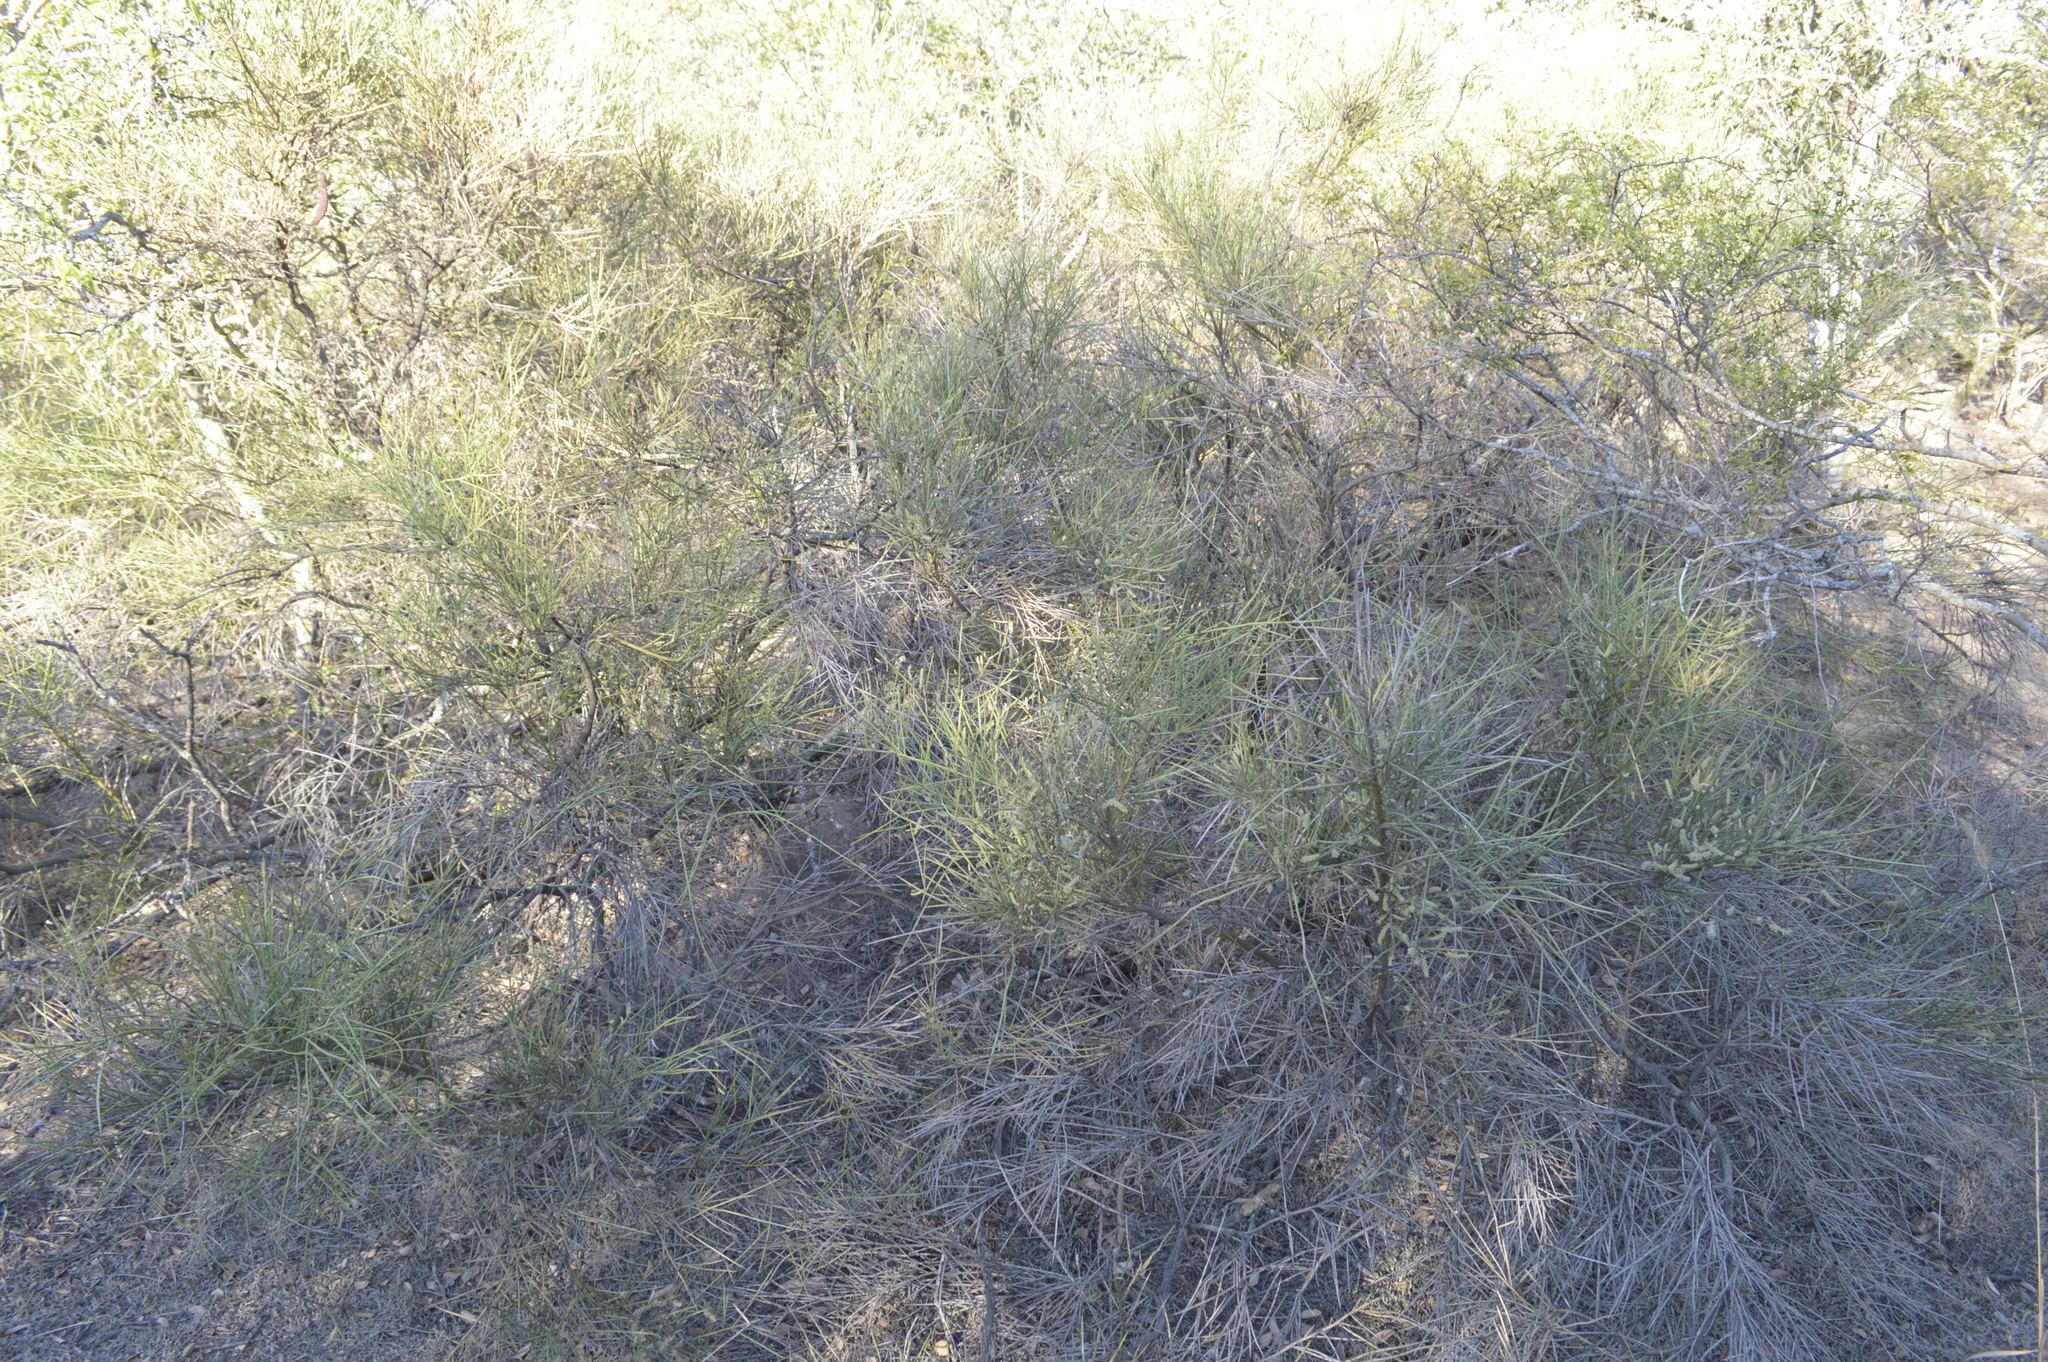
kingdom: Plantae
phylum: Tracheophyta
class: Magnoliopsida
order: Fabales
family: Fabaceae
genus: Prosopis
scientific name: Prosopis sericantha
